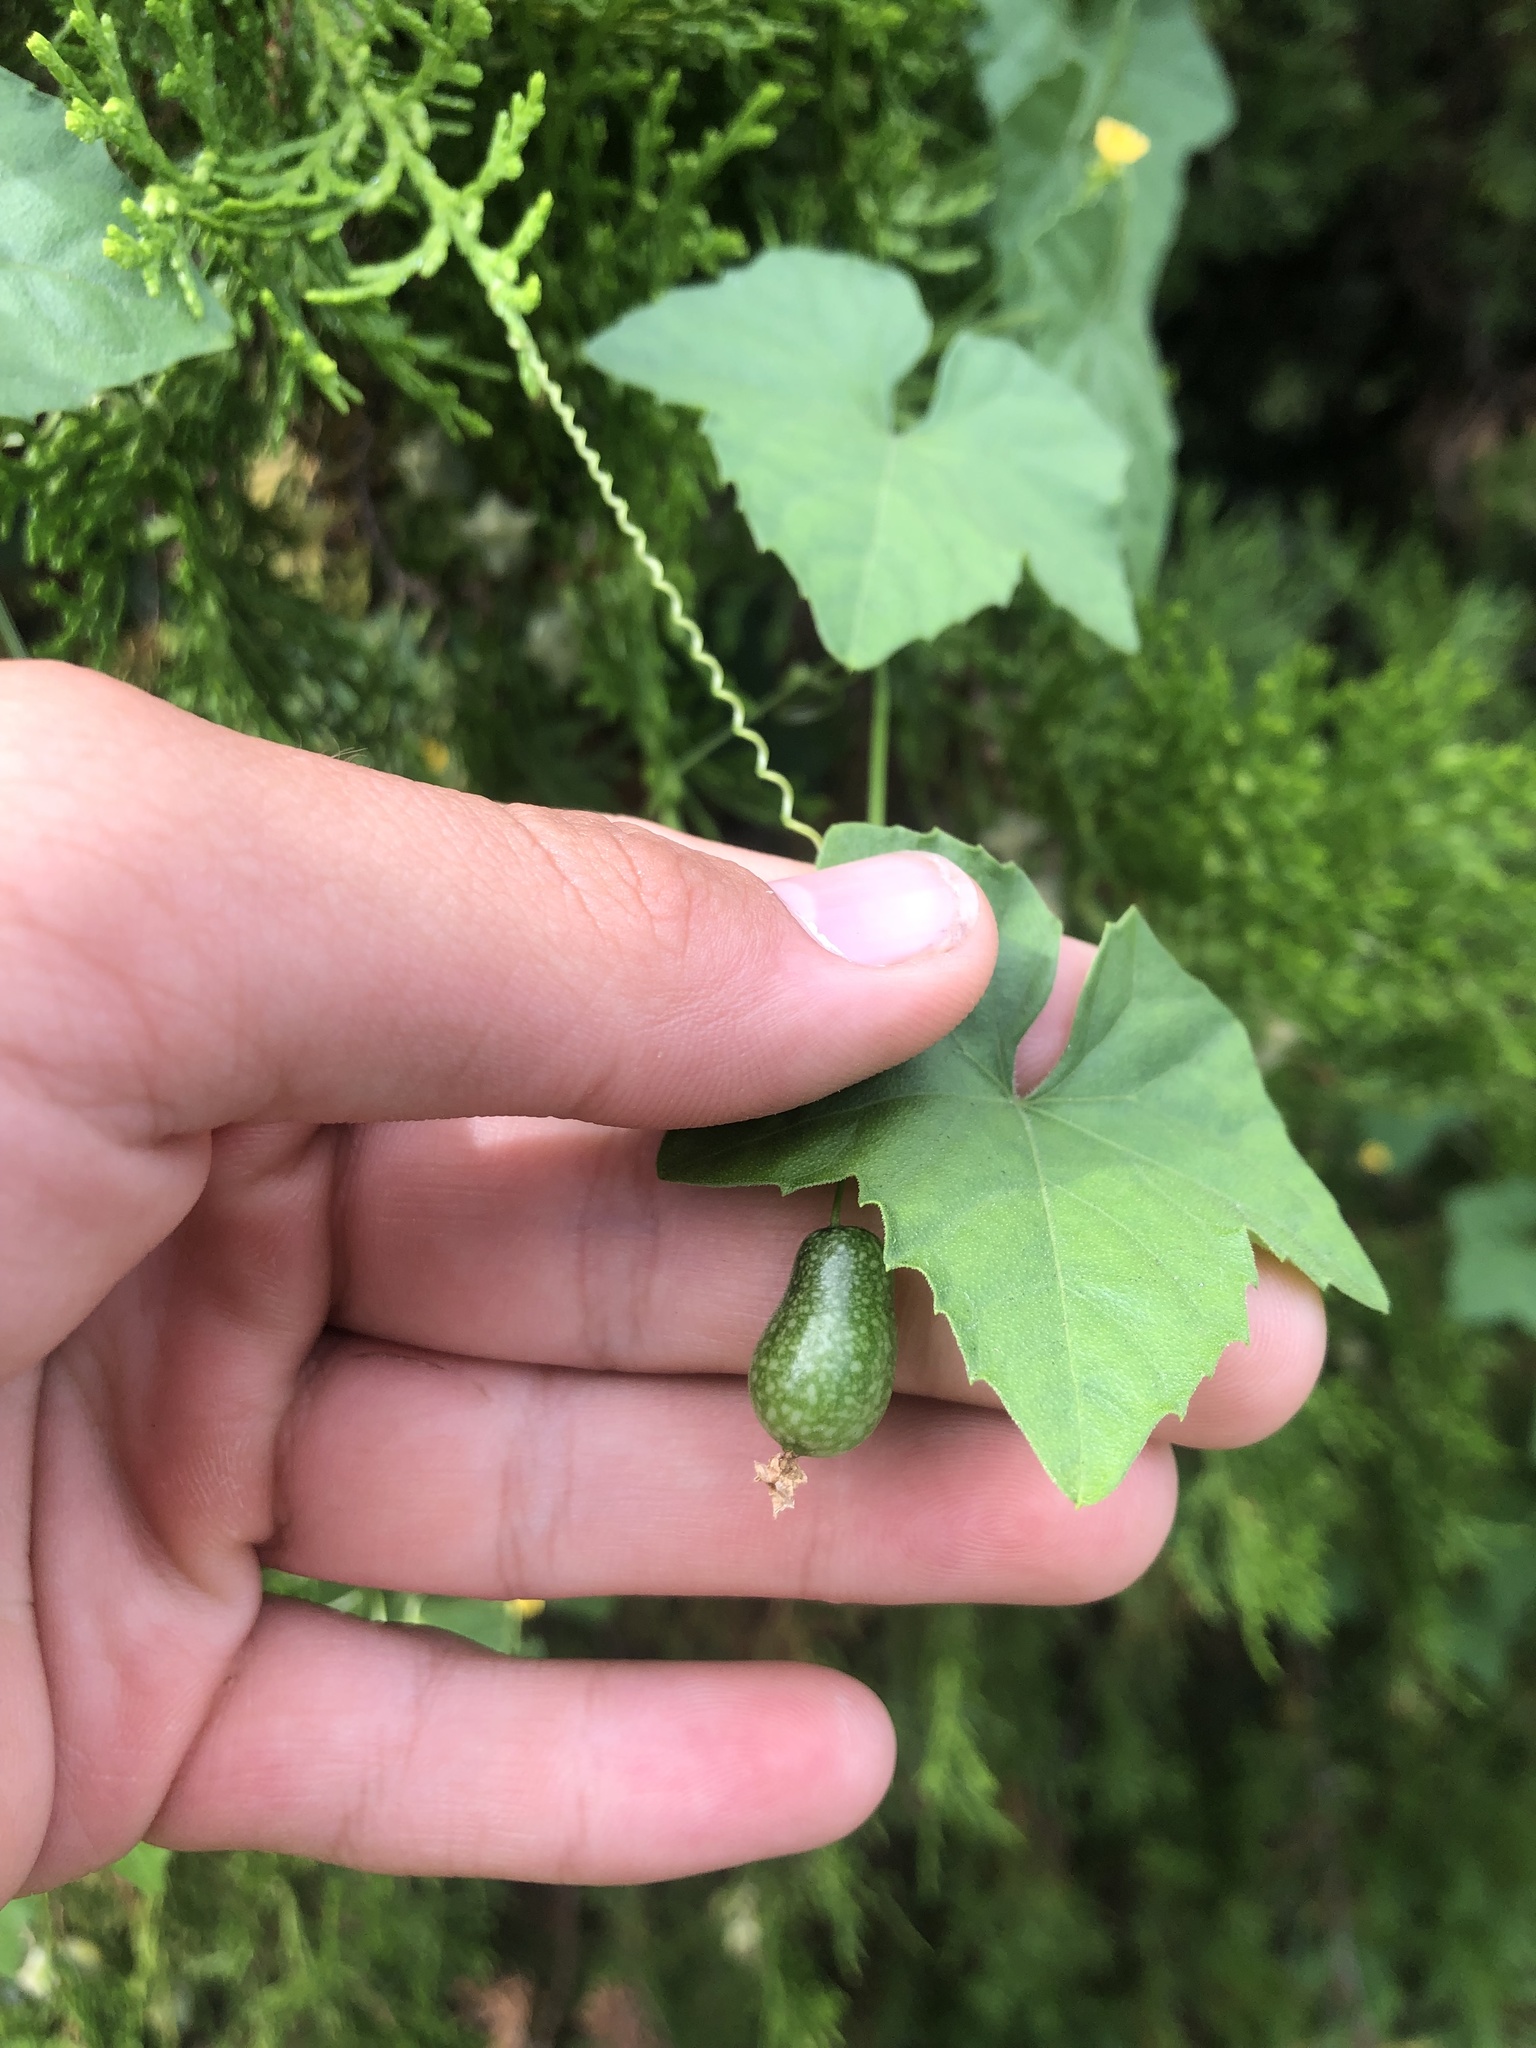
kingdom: Plantae
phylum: Tracheophyta
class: Magnoliopsida
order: Cucurbitales
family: Cucurbitaceae
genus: Melothria
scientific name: Melothria pendula
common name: Creeping-cucumber
